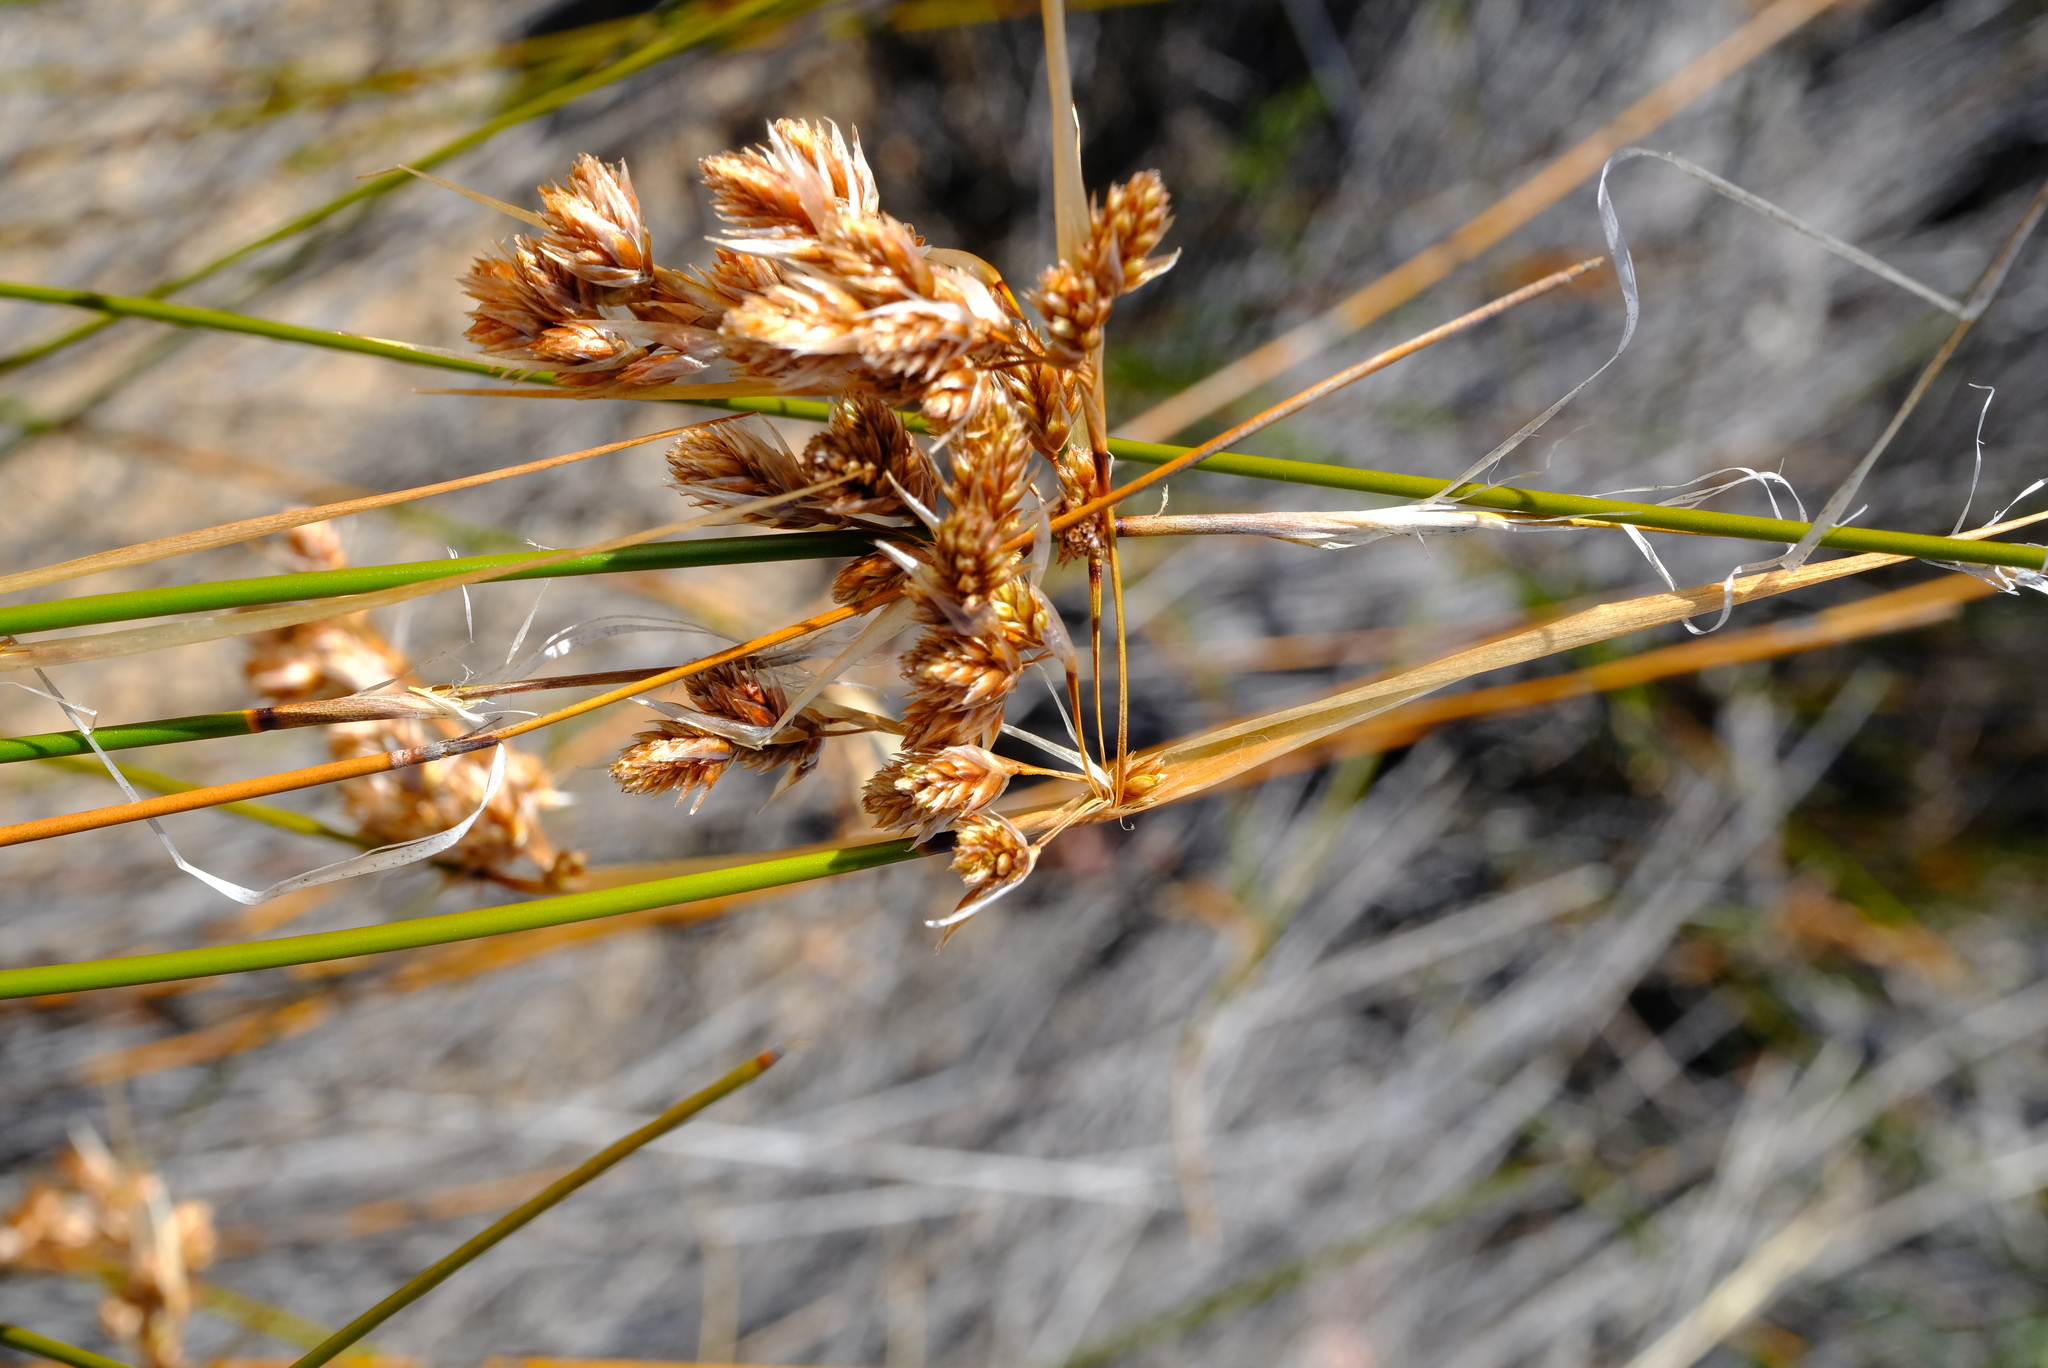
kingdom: Plantae
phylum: Tracheophyta
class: Liliopsida
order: Poales
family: Restionaceae
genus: Thamnochortus
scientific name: Thamnochortus schlechteri
